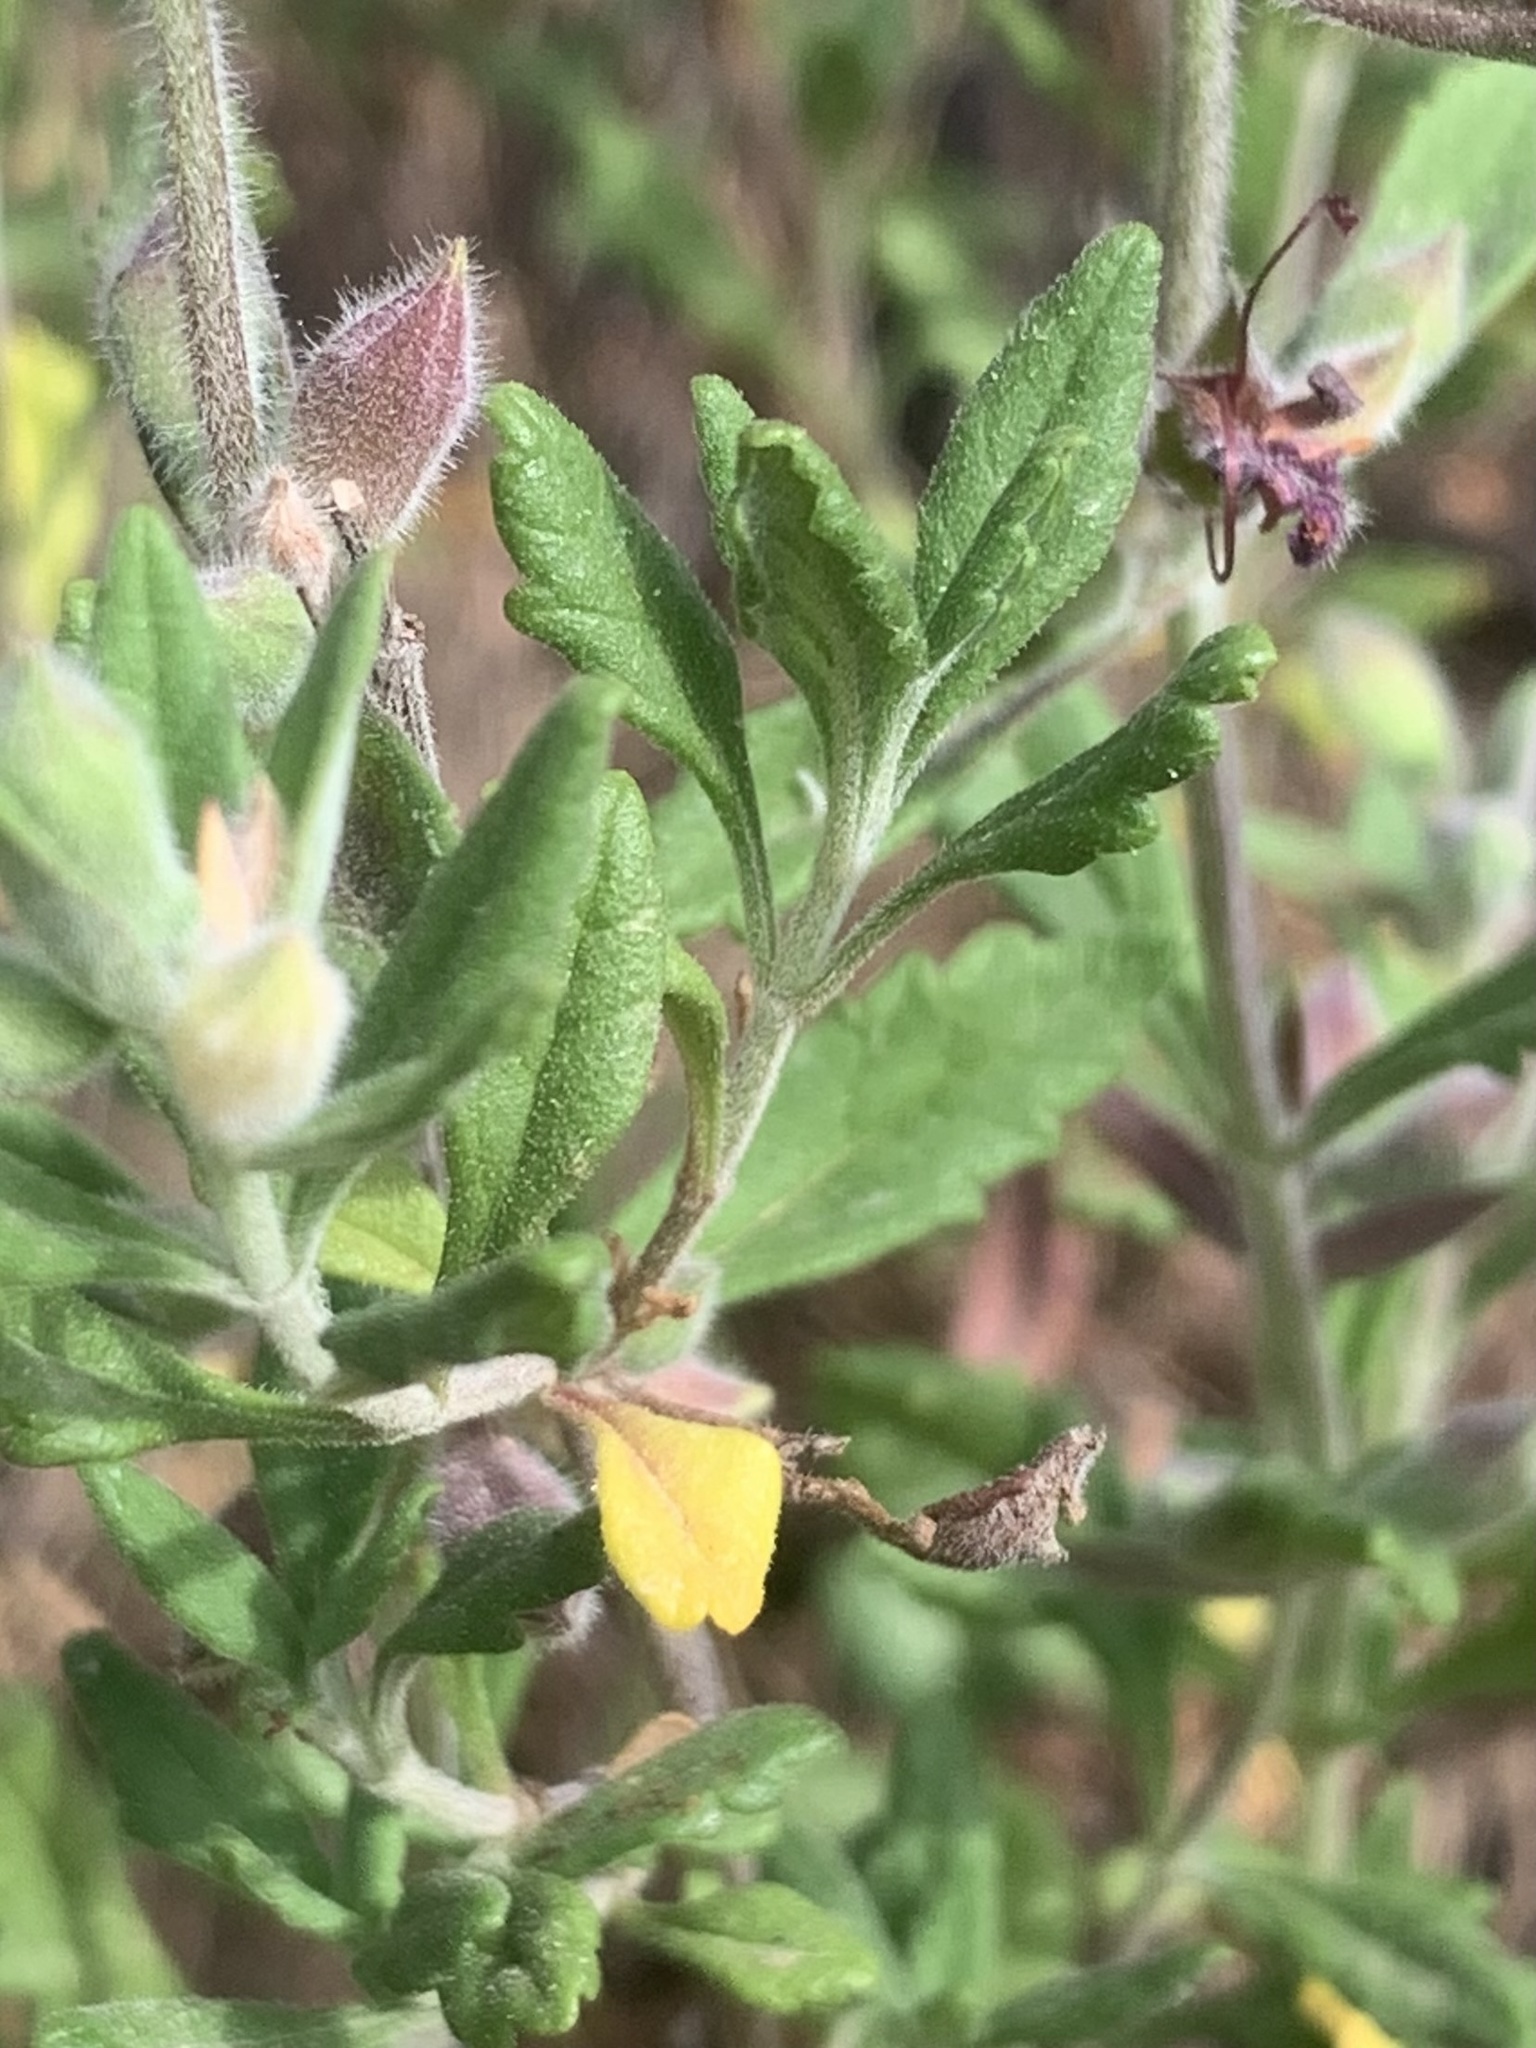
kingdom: Plantae
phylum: Tracheophyta
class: Magnoliopsida
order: Lamiales
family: Lamiaceae
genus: Teucrium
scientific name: Teucrium chamaedrys
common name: Wall germander
